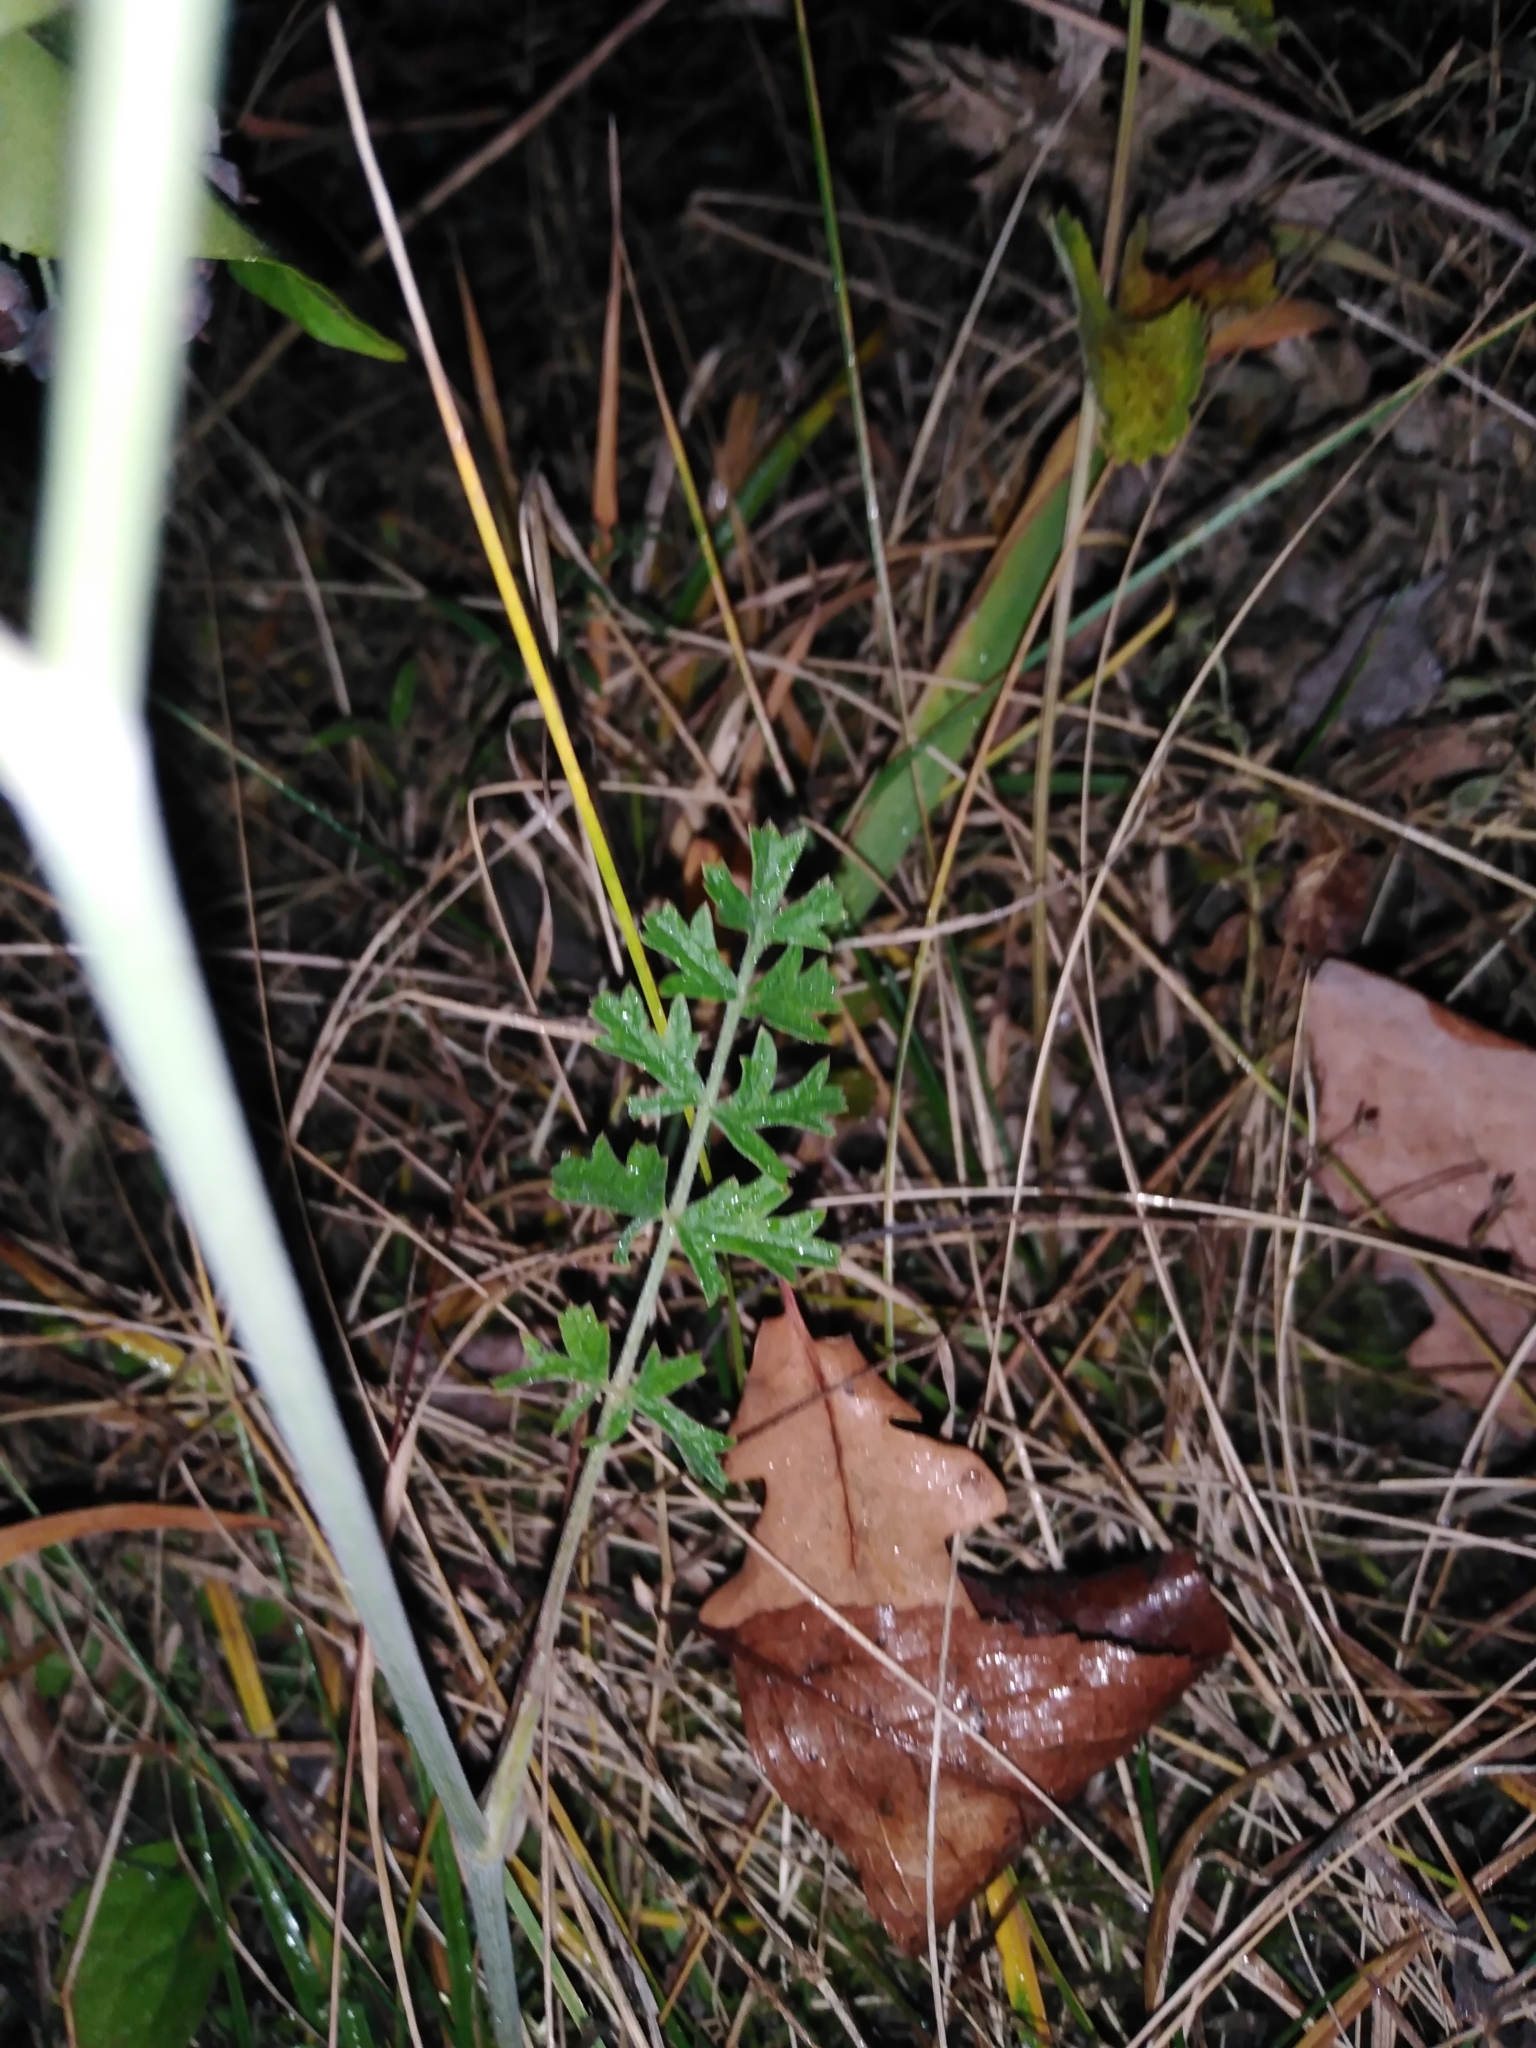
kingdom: Plantae
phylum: Tracheophyta
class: Magnoliopsida
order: Apiales
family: Apiaceae
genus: Pimpinella
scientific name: Pimpinella saxifraga
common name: Burnet-saxifrage
